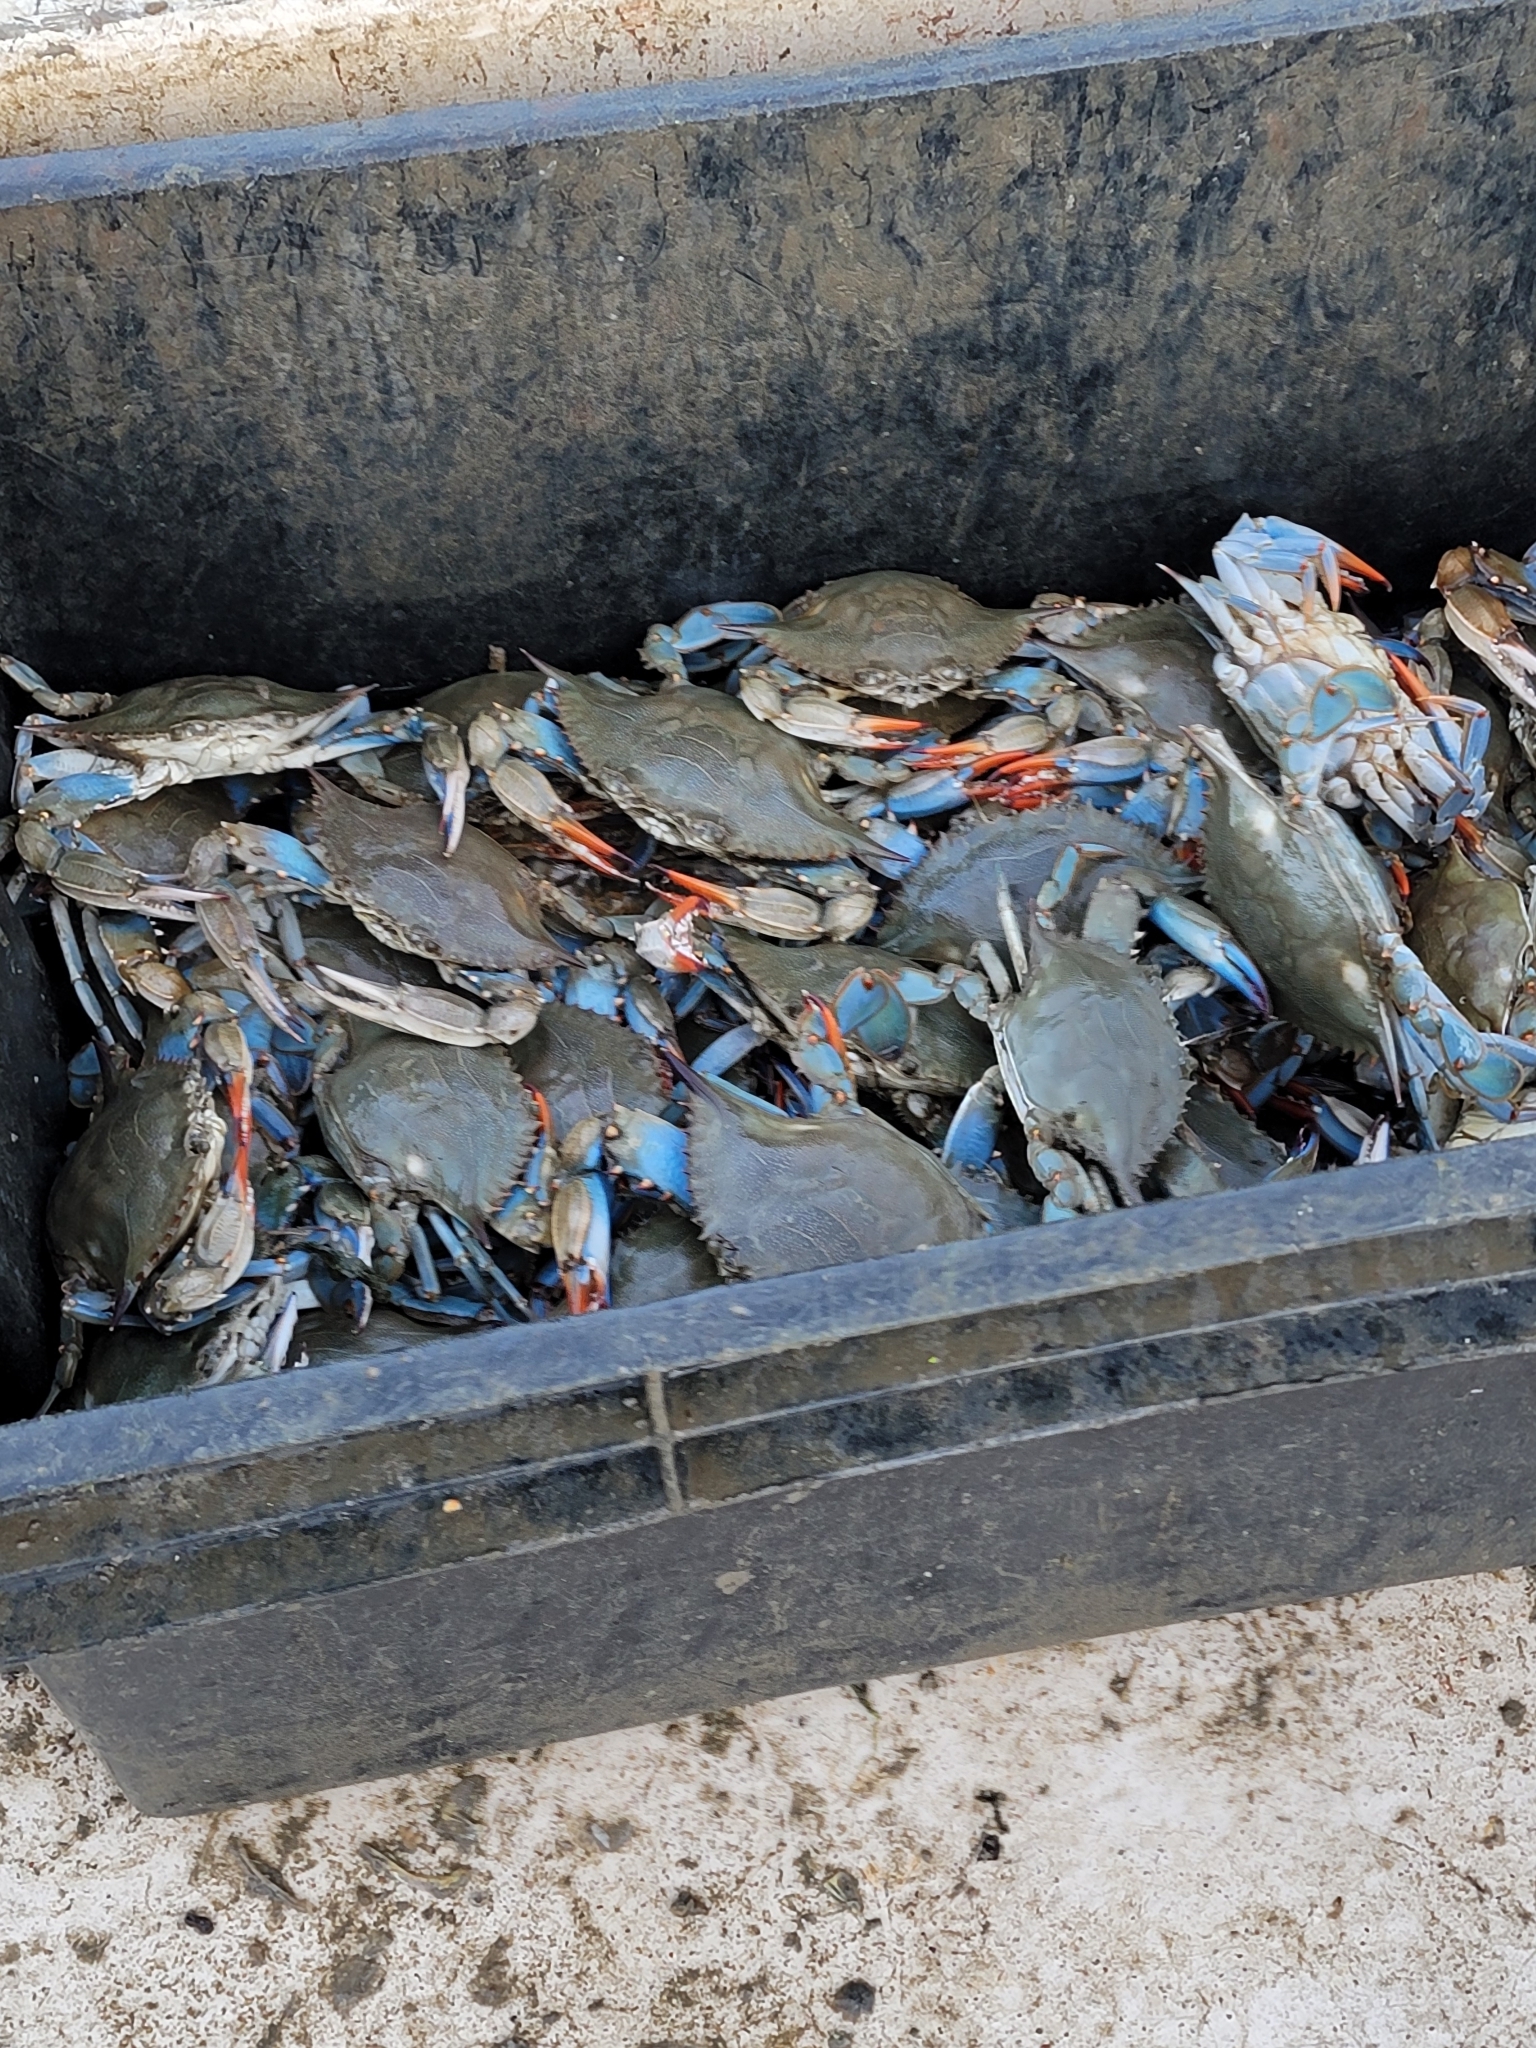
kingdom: Animalia
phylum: Arthropoda
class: Malacostraca
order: Decapoda
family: Portunidae
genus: Callinectes
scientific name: Callinectes sapidus
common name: Blue crab
